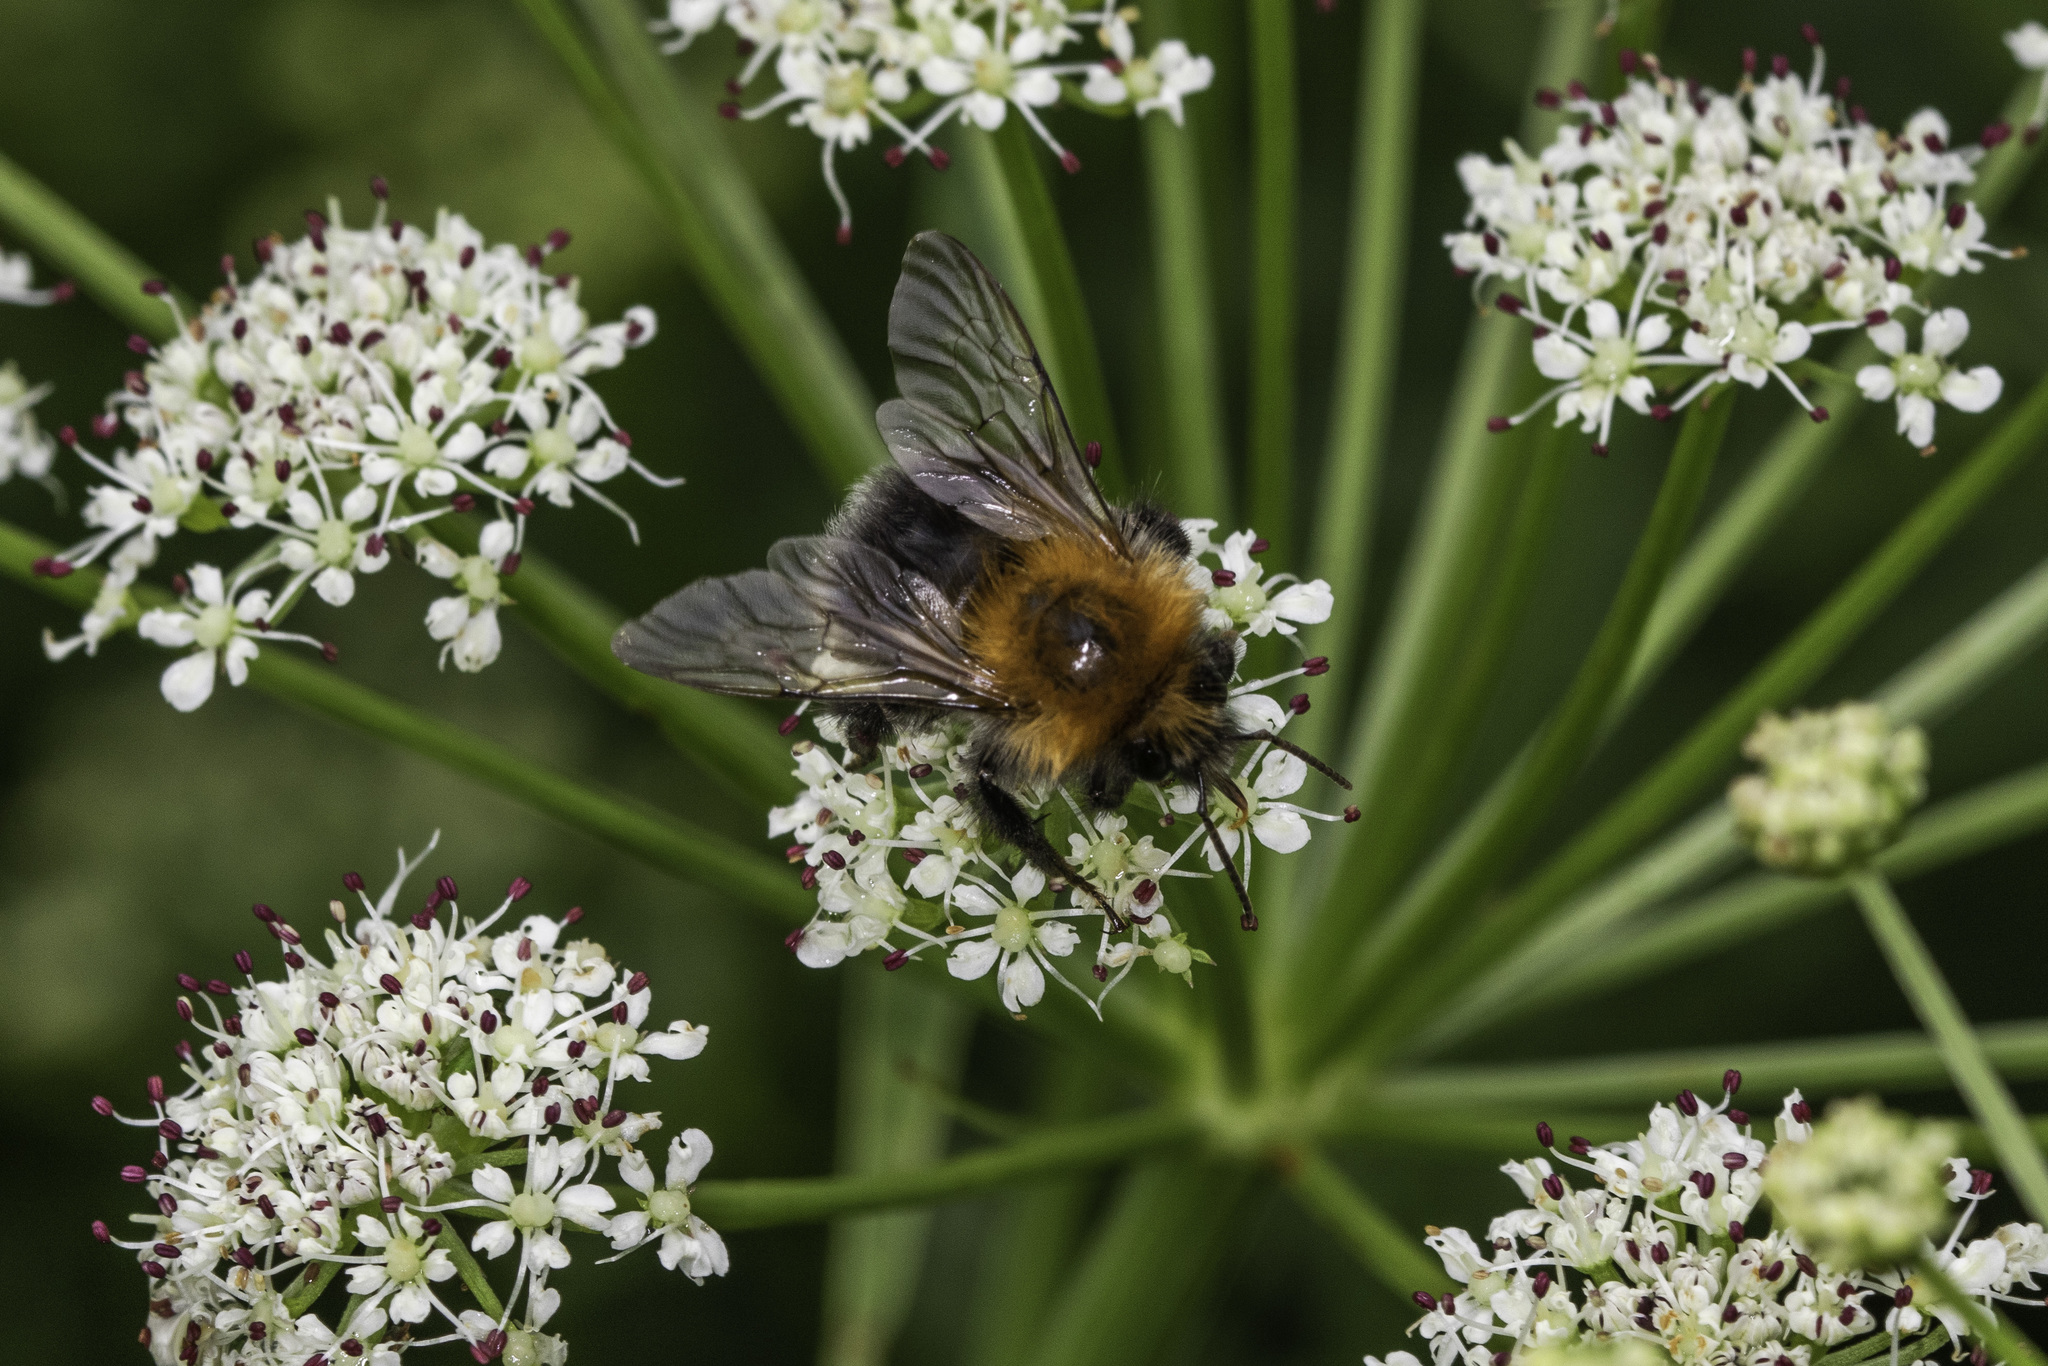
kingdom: Animalia
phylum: Arthropoda
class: Insecta
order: Hymenoptera
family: Apidae
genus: Bombus
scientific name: Bombus hypnorum
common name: New garden bumblebee
